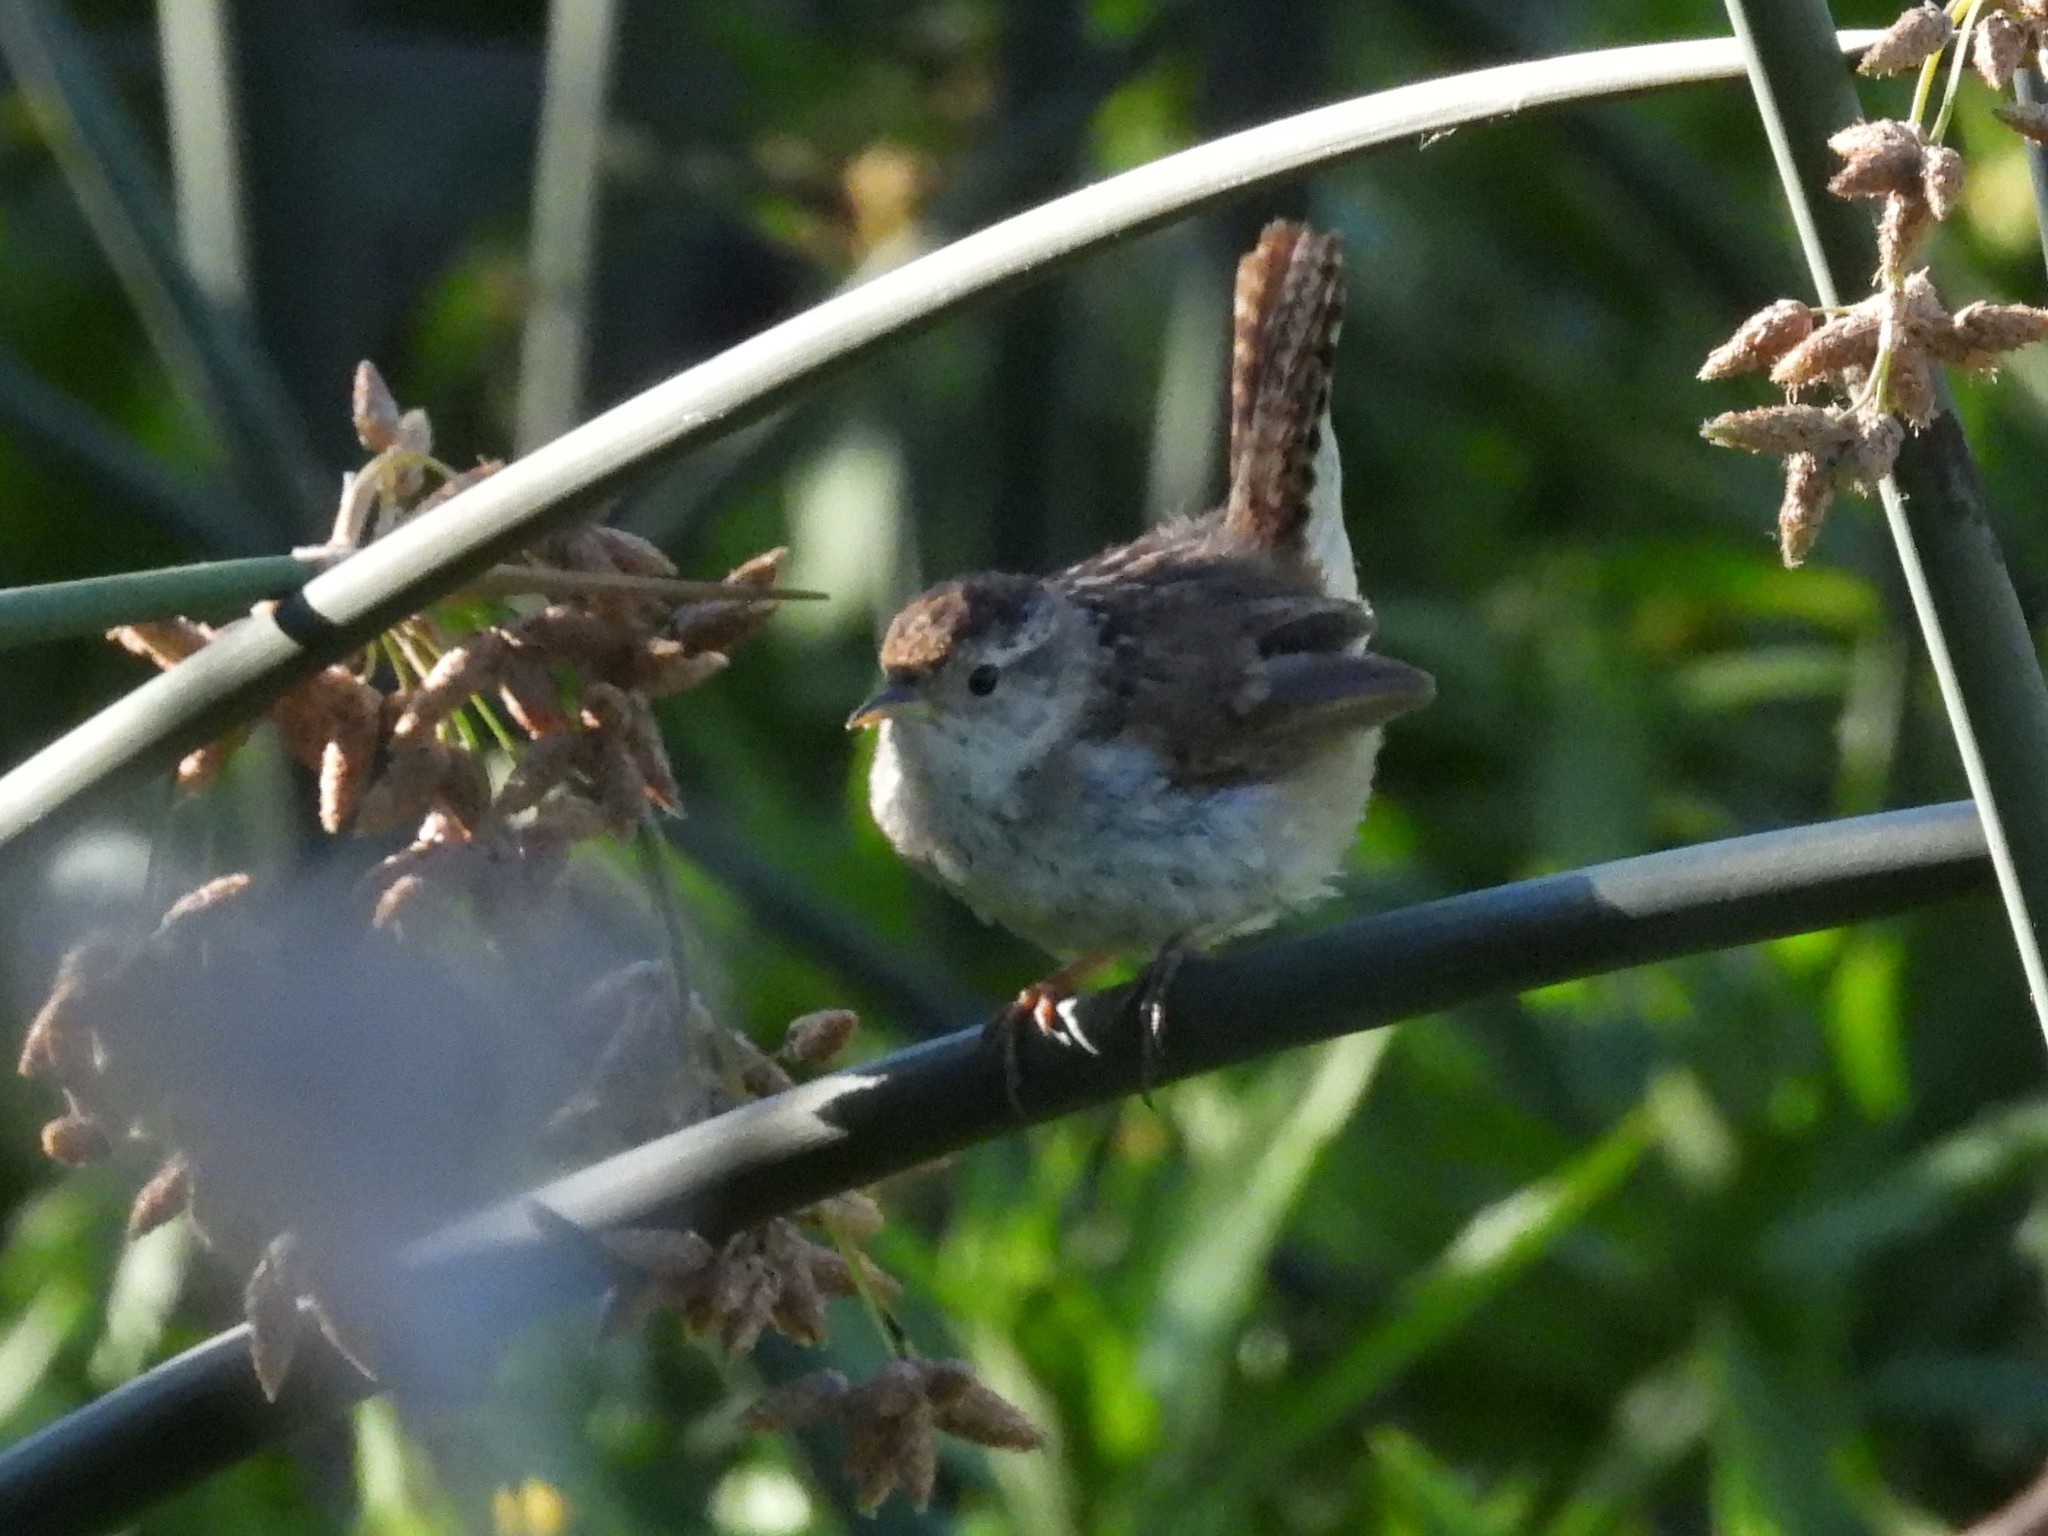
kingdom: Animalia
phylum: Chordata
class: Aves
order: Passeriformes
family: Troglodytidae
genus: Cistothorus
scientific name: Cistothorus palustris
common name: Marsh wren
